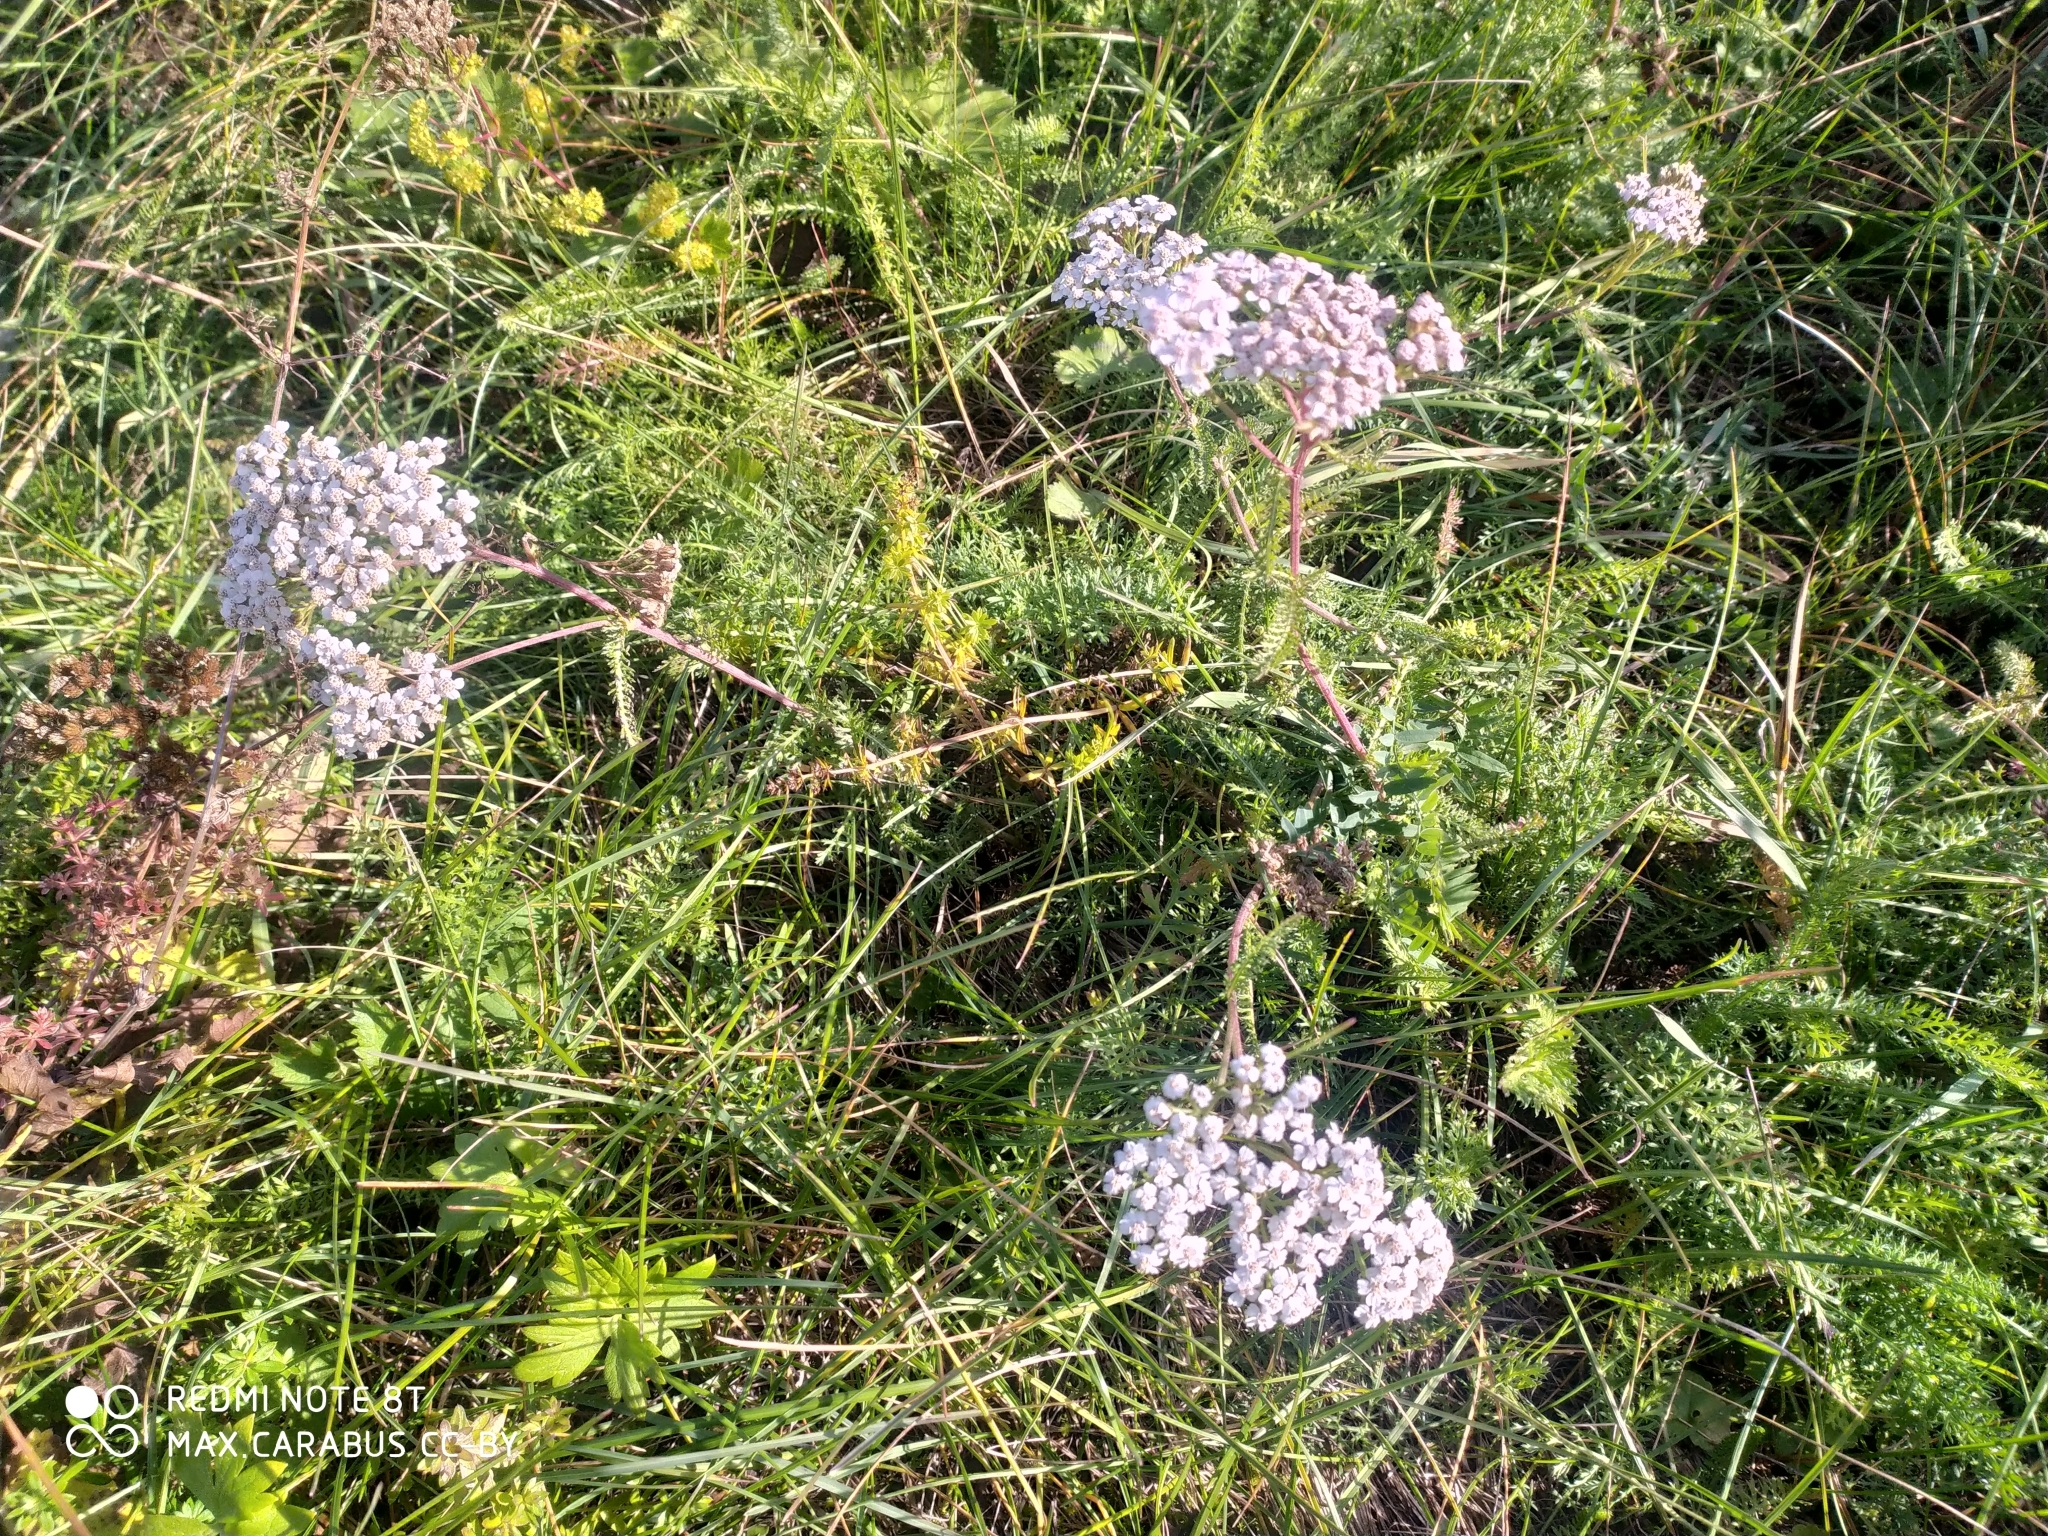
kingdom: Plantae
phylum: Tracheophyta
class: Magnoliopsida
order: Asterales
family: Asteraceae
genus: Achillea
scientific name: Achillea millefolium
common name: Yarrow
